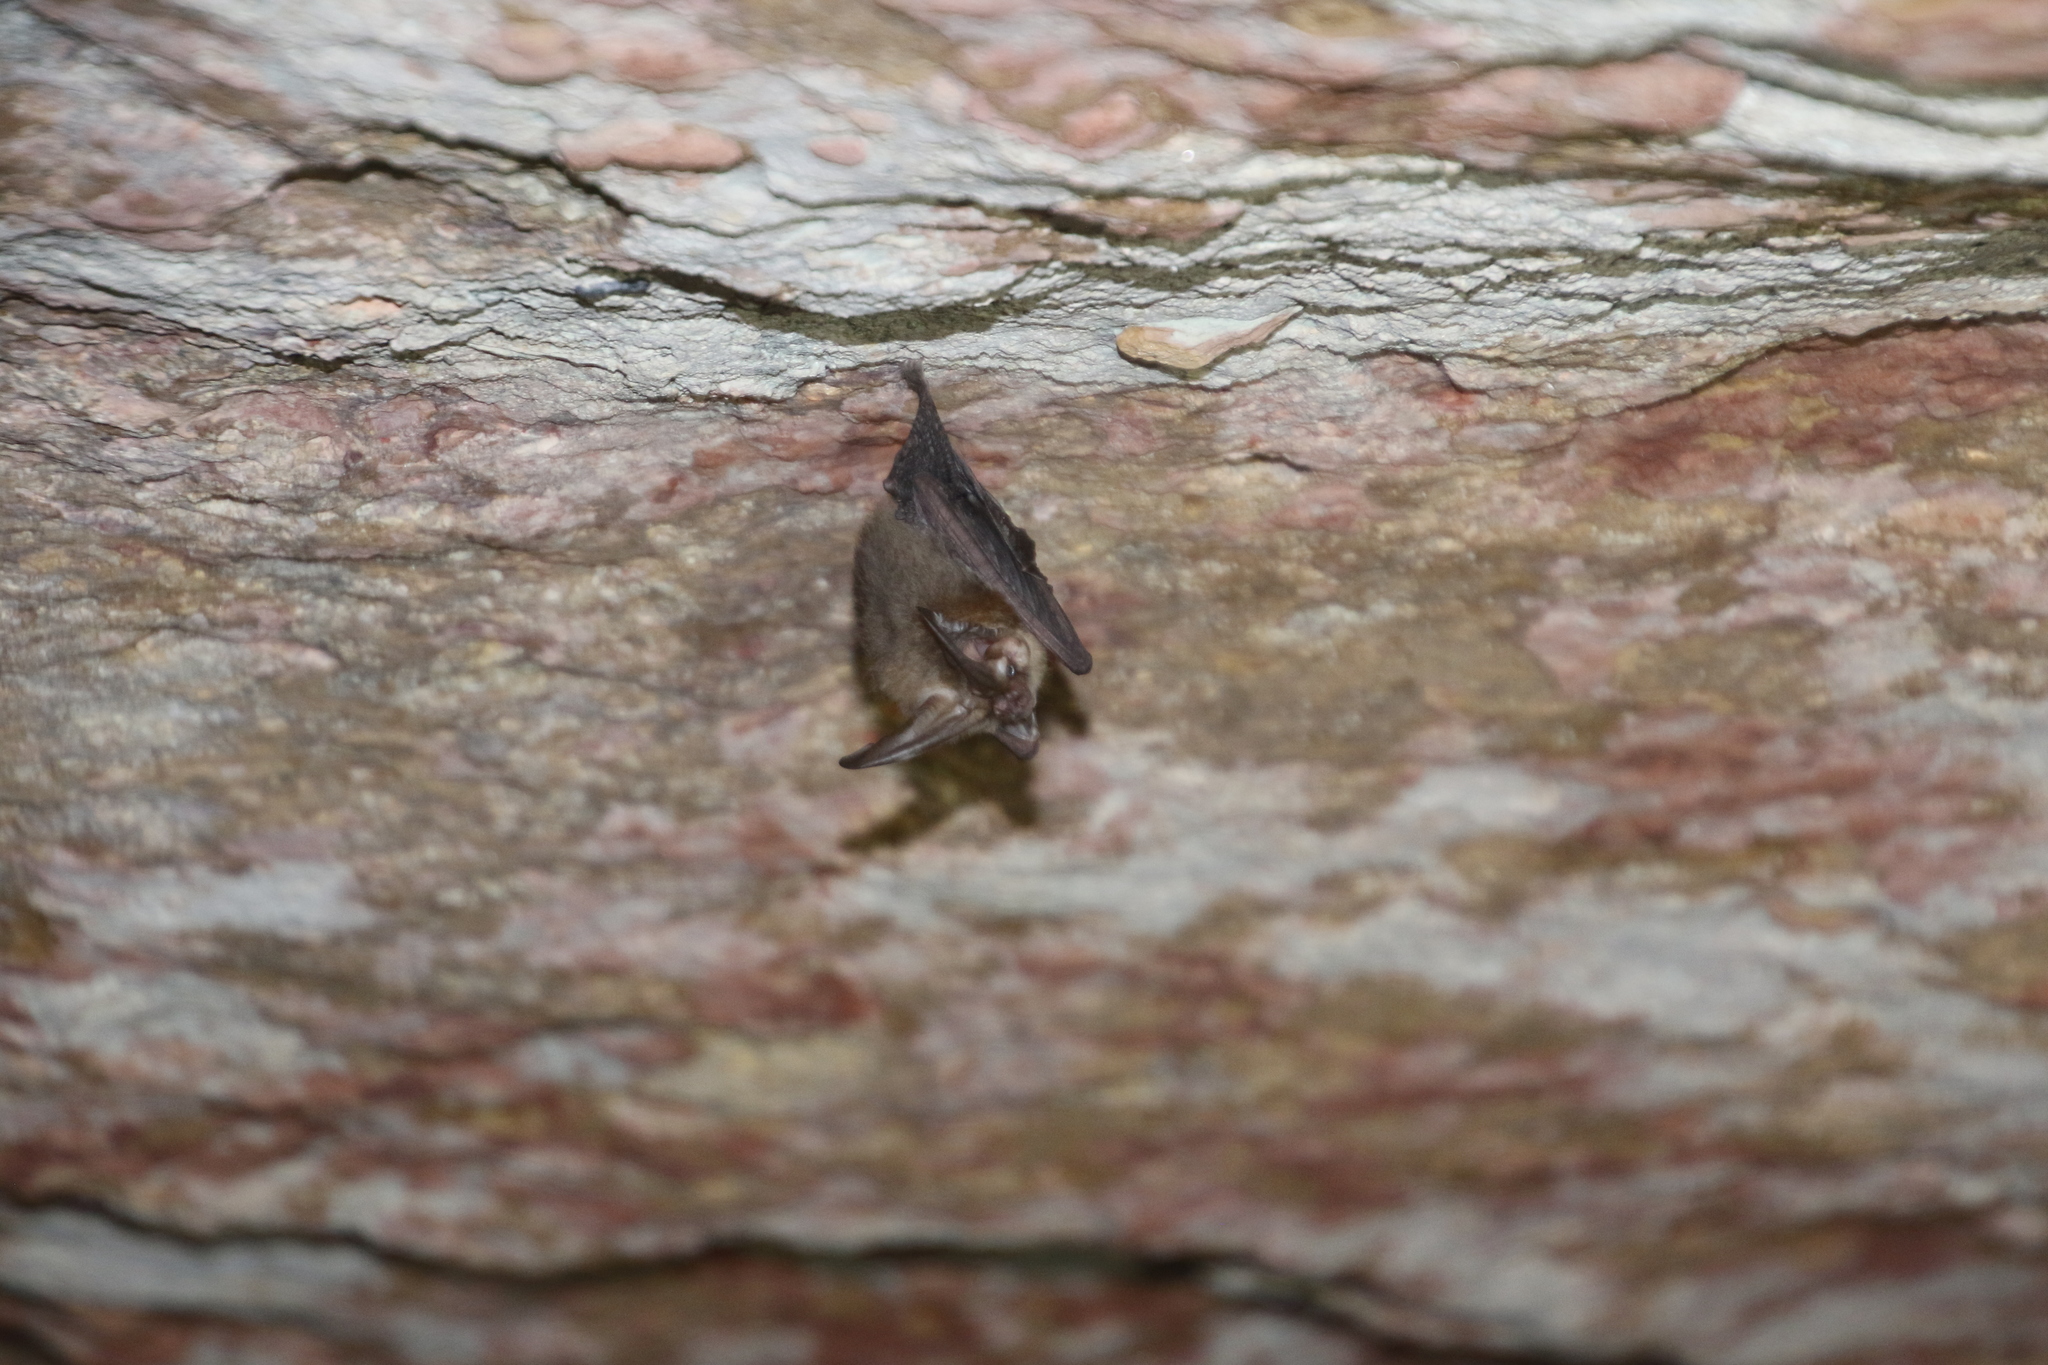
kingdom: Animalia
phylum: Chordata
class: Mammalia
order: Chiroptera
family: Vespertilionidae
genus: Corynorhinus
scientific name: Corynorhinus townsendii
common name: Townsend's big-eared bat
